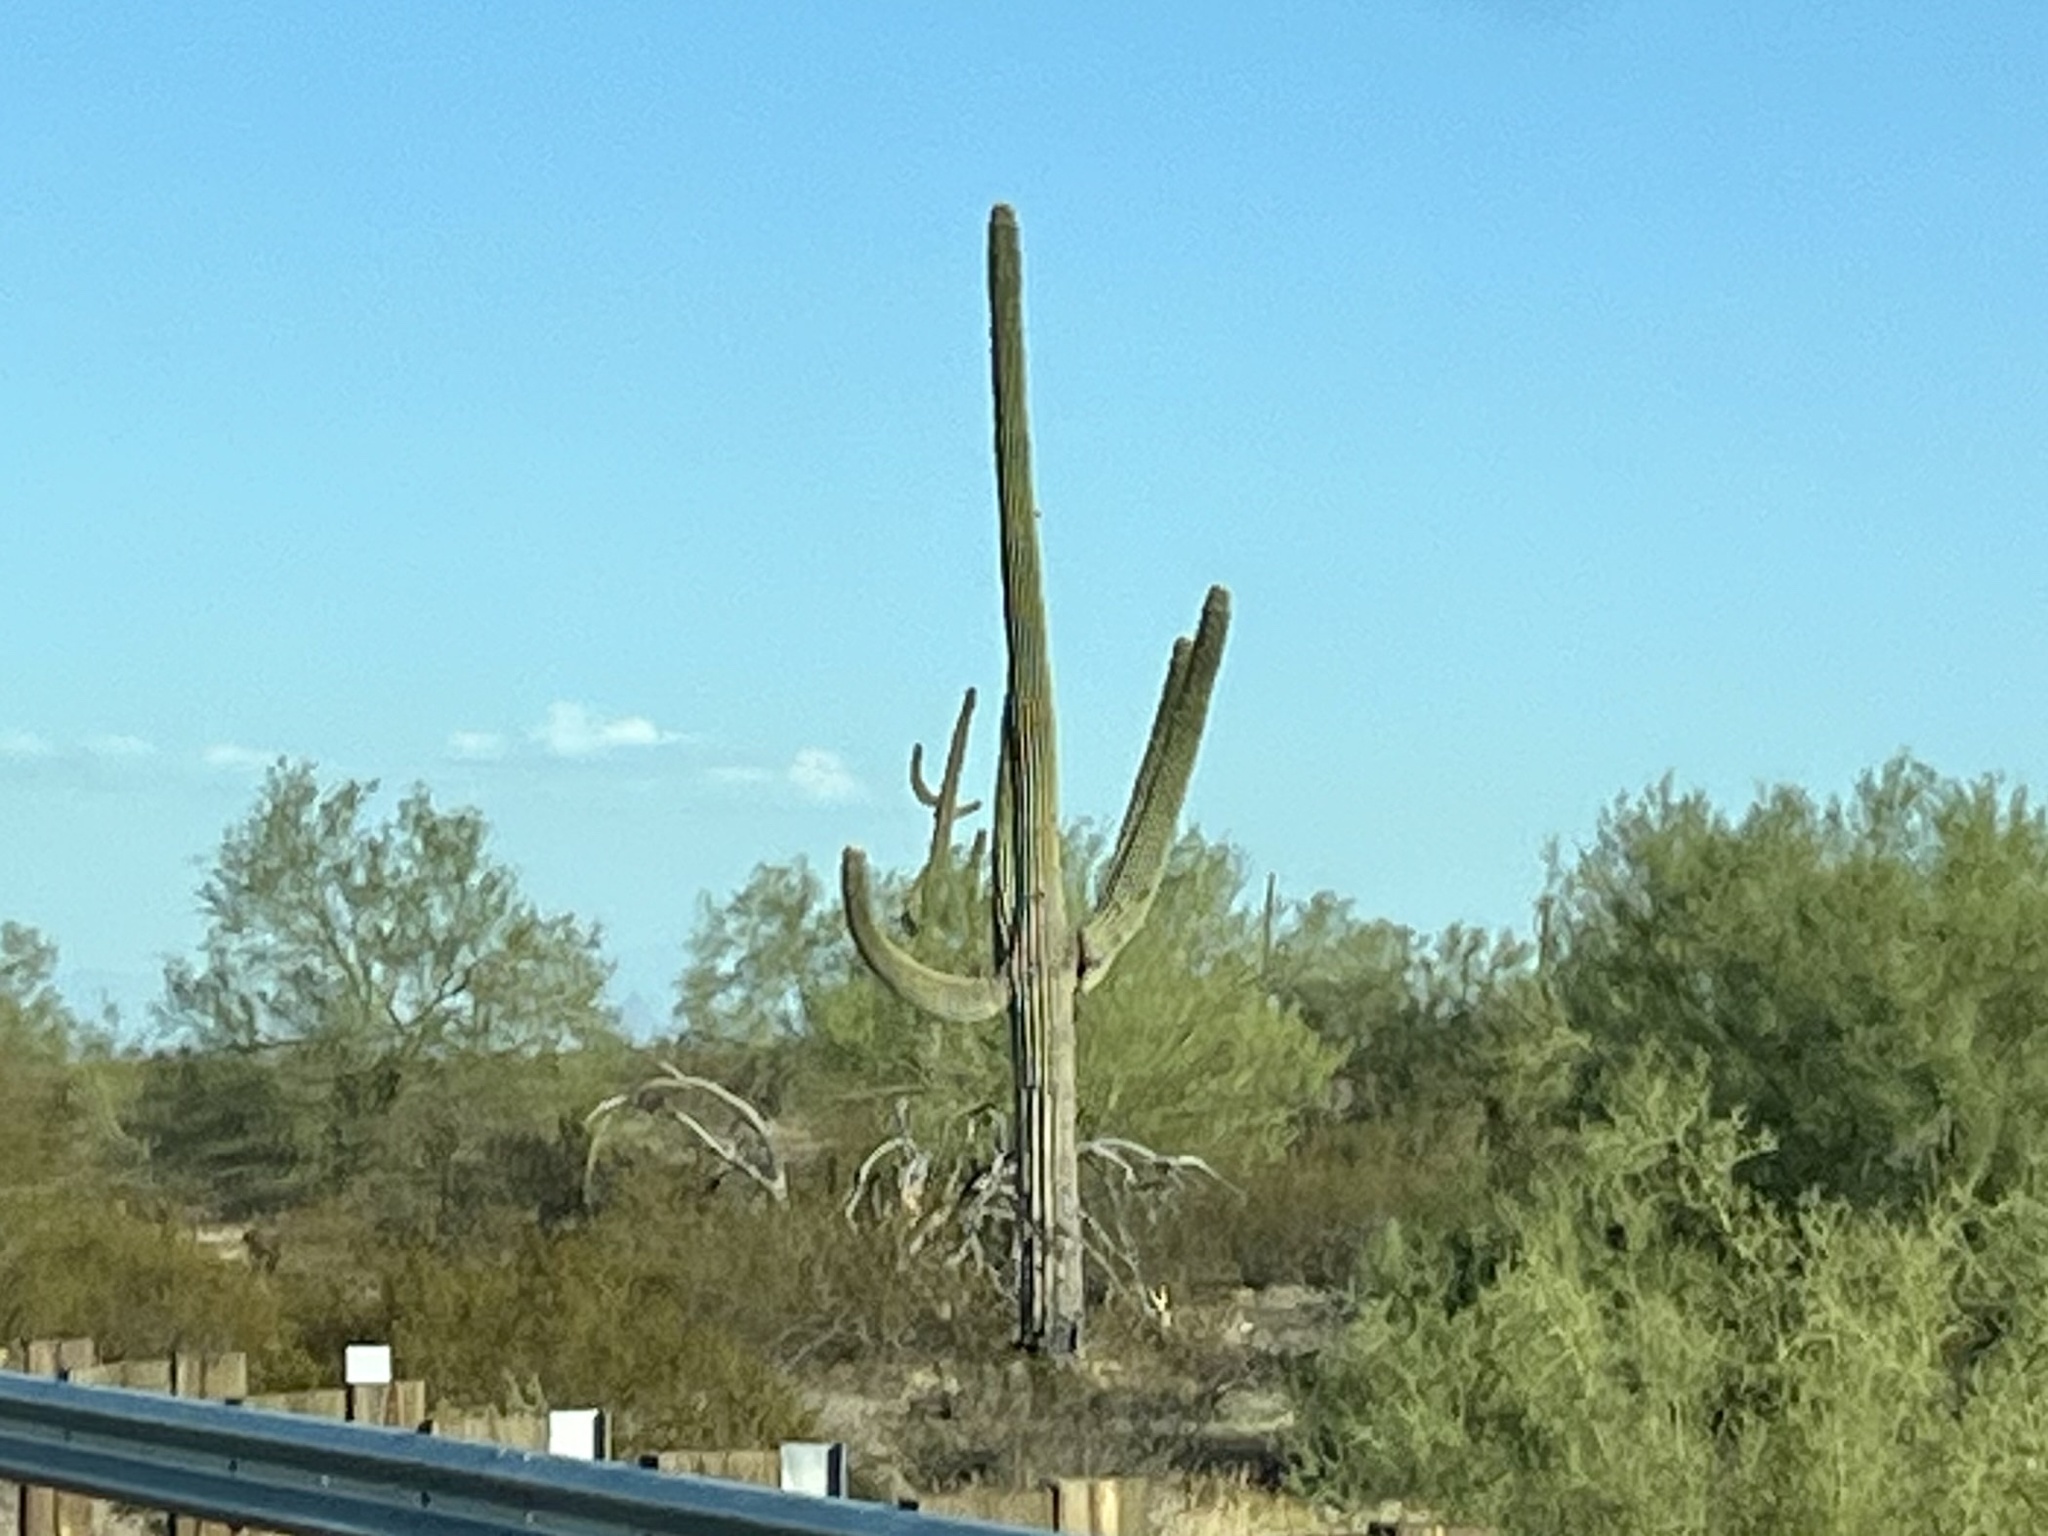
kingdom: Plantae
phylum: Tracheophyta
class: Magnoliopsida
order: Caryophyllales
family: Cactaceae
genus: Carnegiea
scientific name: Carnegiea gigantea
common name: Saguaro
